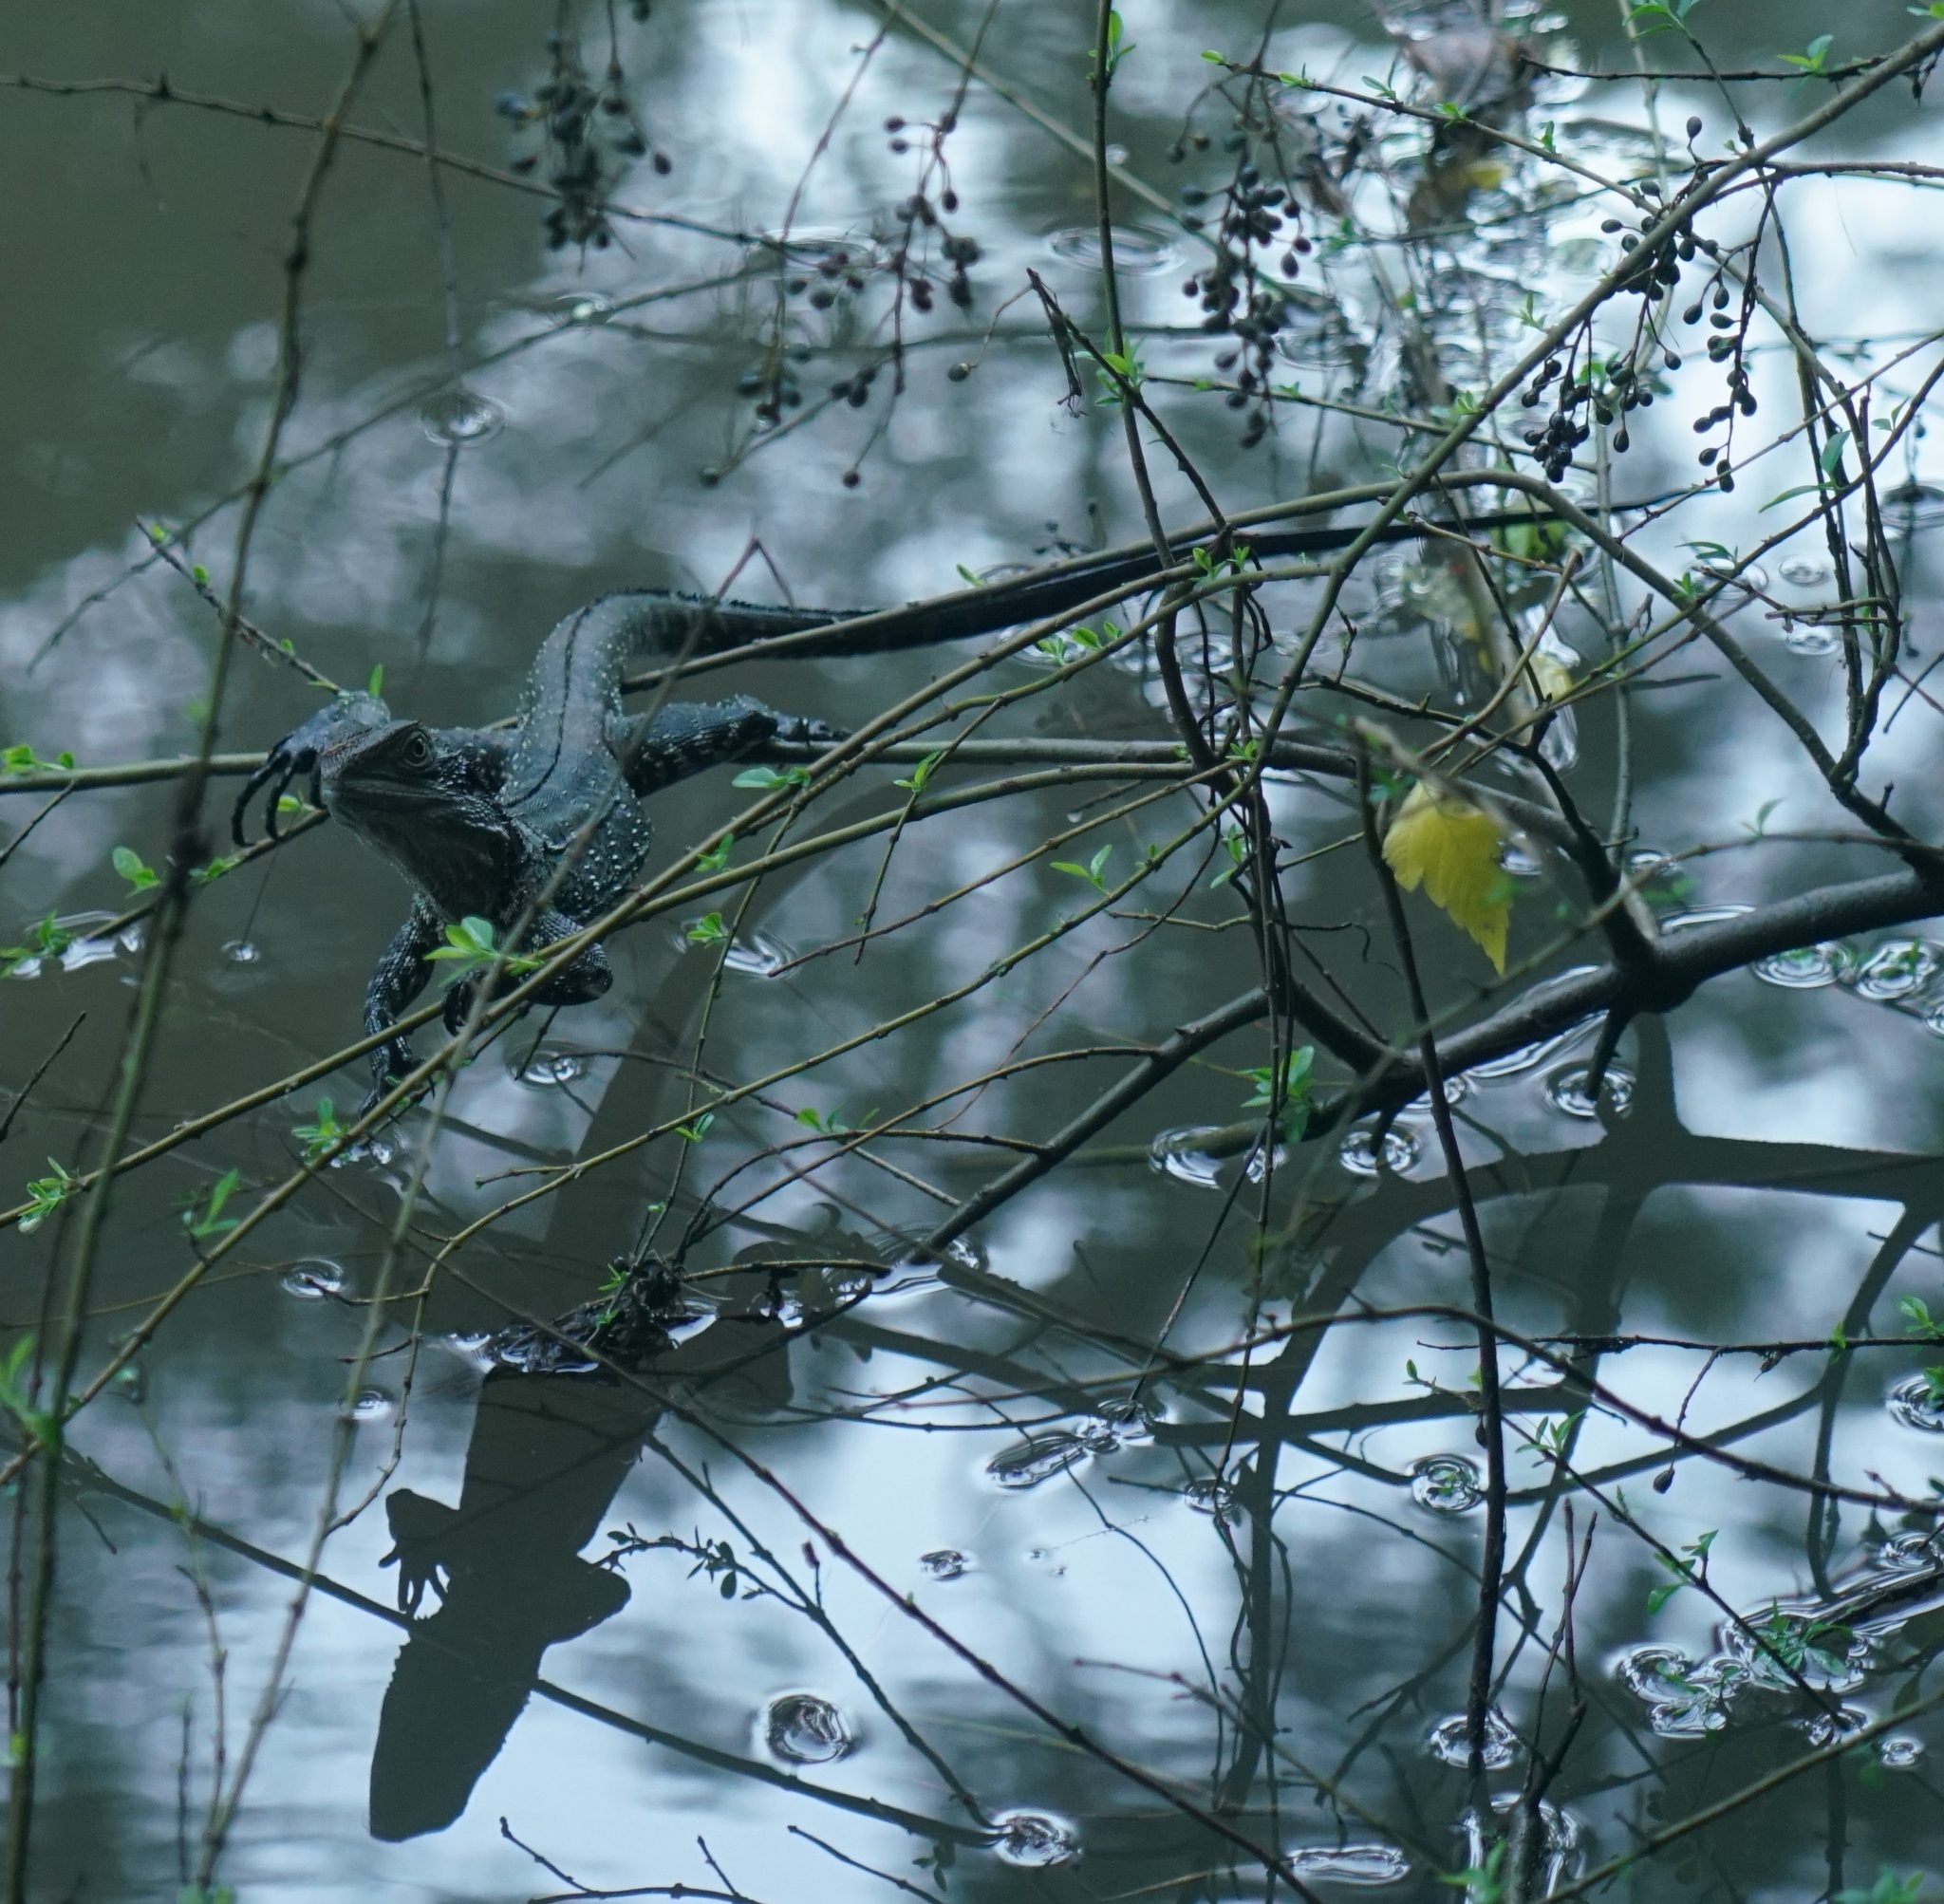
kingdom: Animalia
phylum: Chordata
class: Squamata
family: Agamidae
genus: Intellagama
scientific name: Intellagama lesueurii
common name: Eastern water dragon
